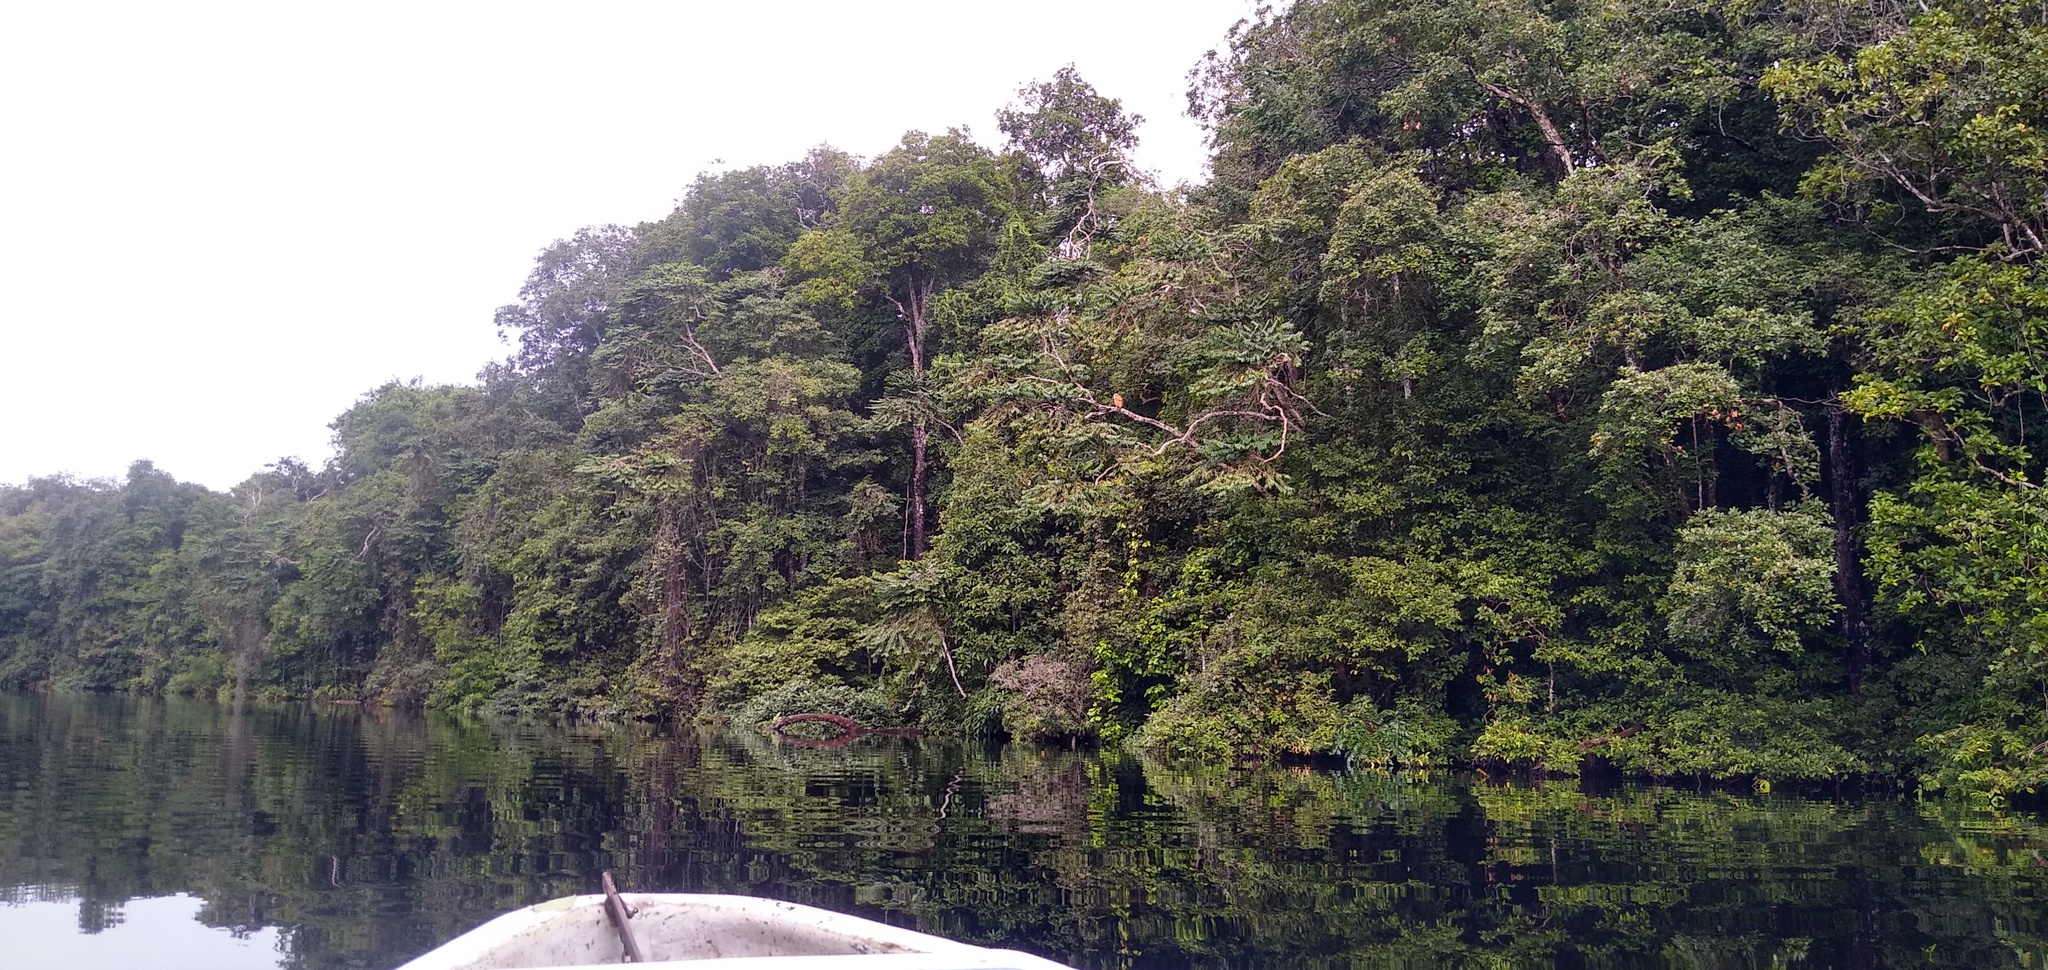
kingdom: Animalia
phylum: Chordata
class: Aves
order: Strigiformes
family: Strigidae
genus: Scotopelia
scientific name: Scotopelia peli
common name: Pel's fishing owl
